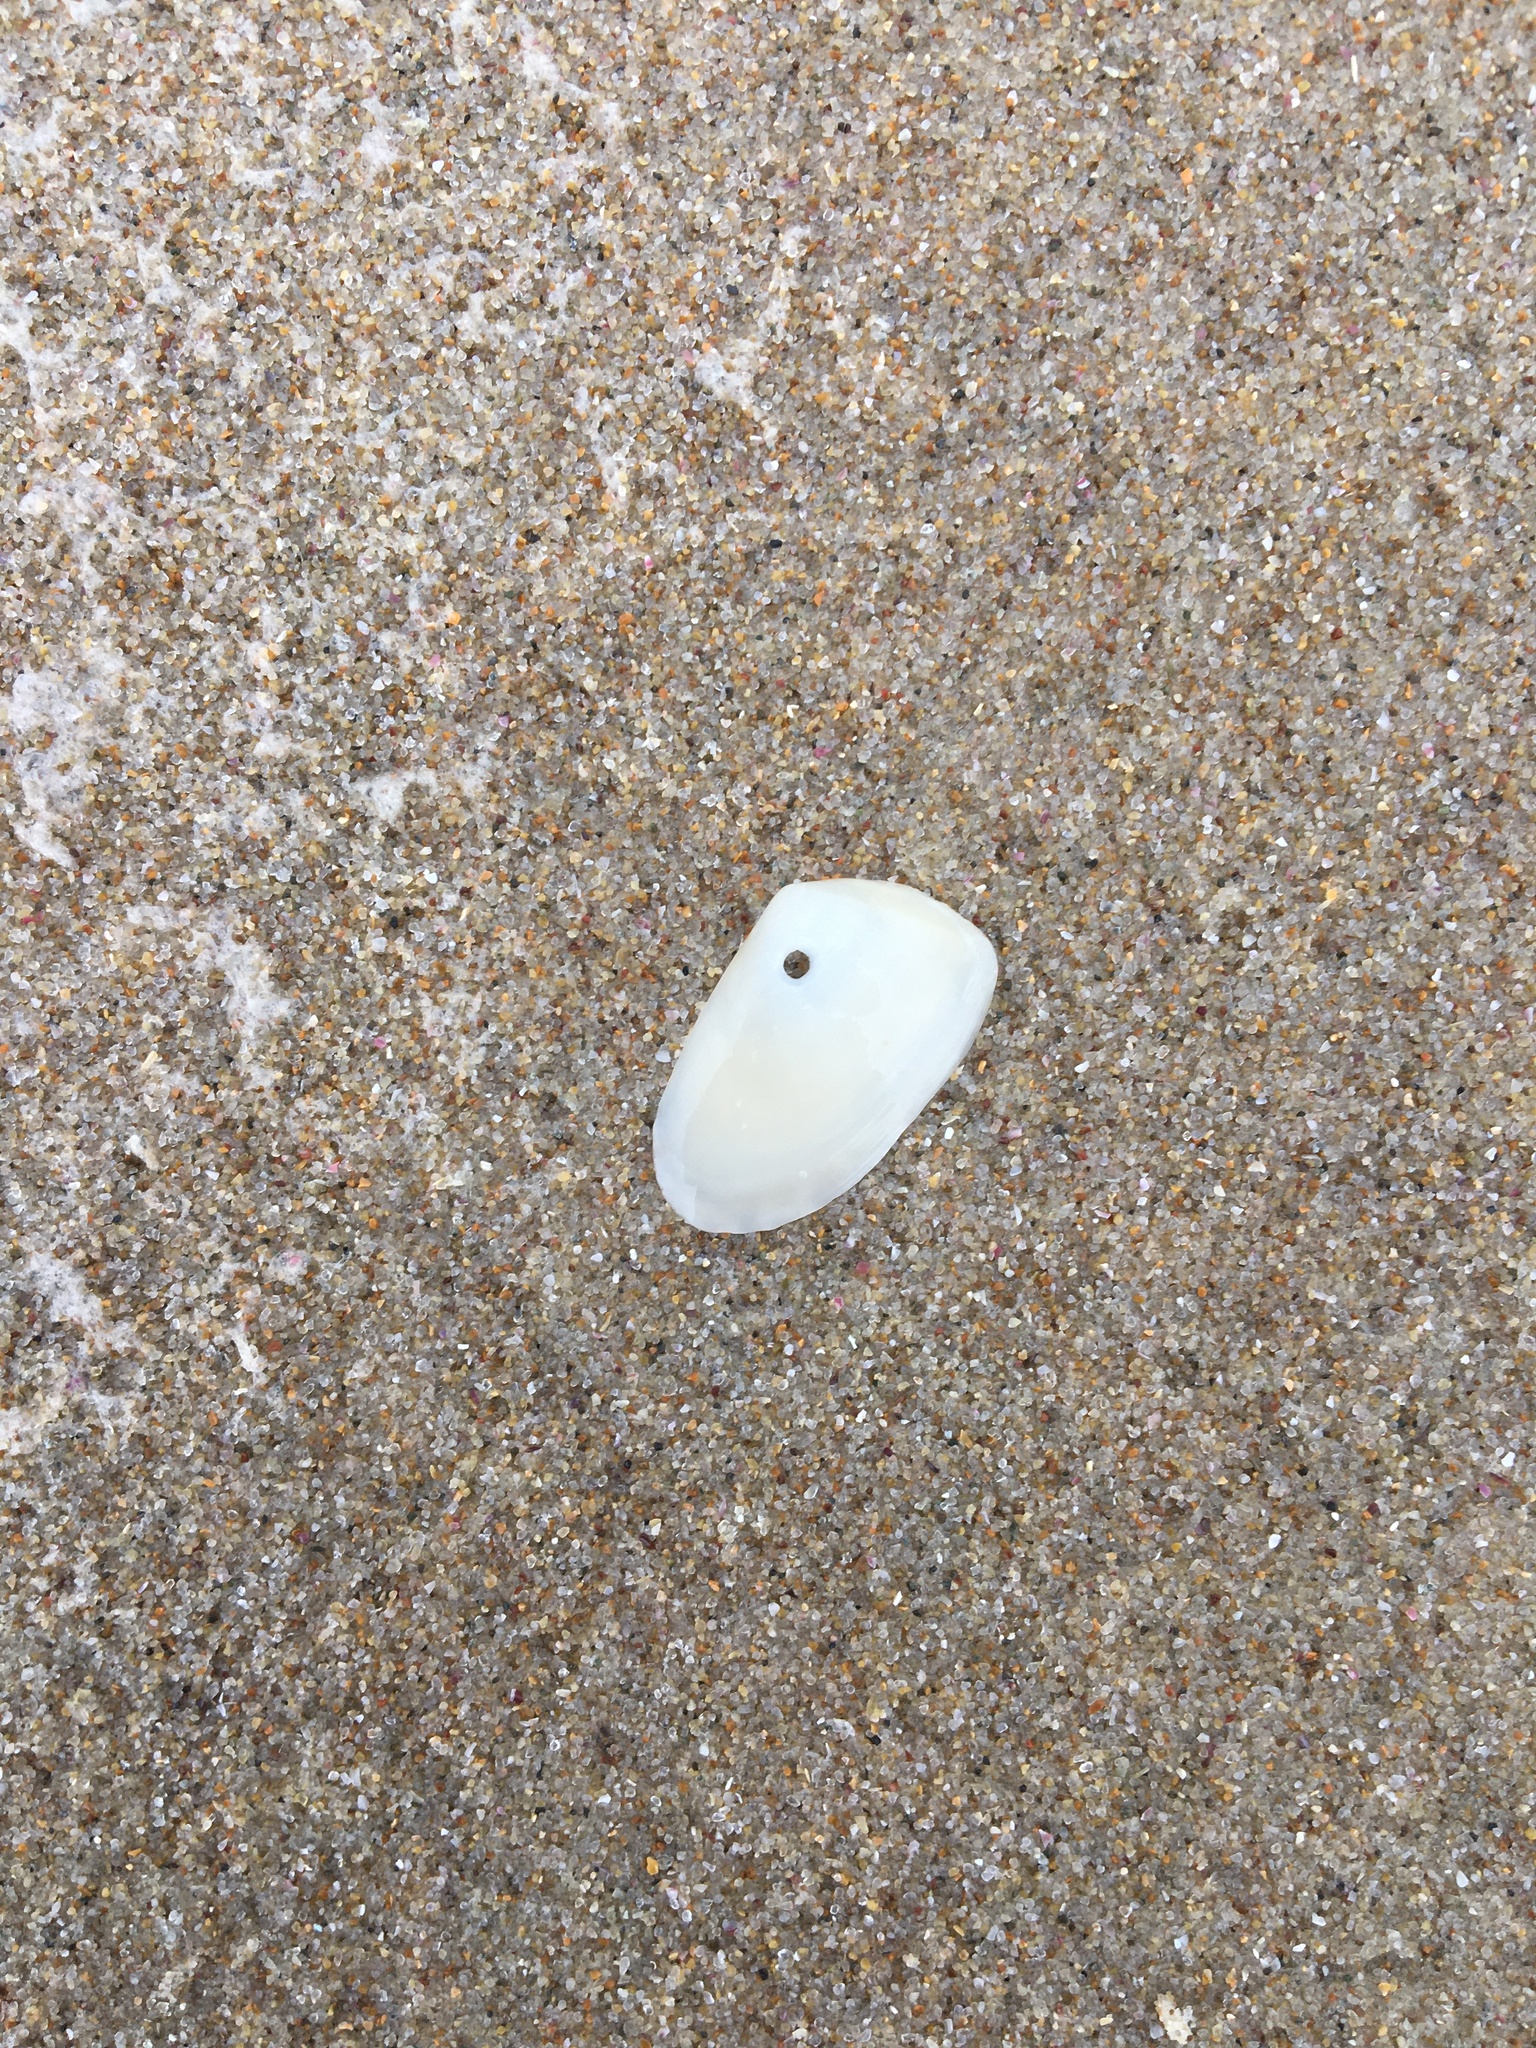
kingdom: Animalia
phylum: Mollusca
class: Bivalvia
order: Venerida
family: Mesodesmatidae
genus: Paphies
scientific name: Paphies angusta
